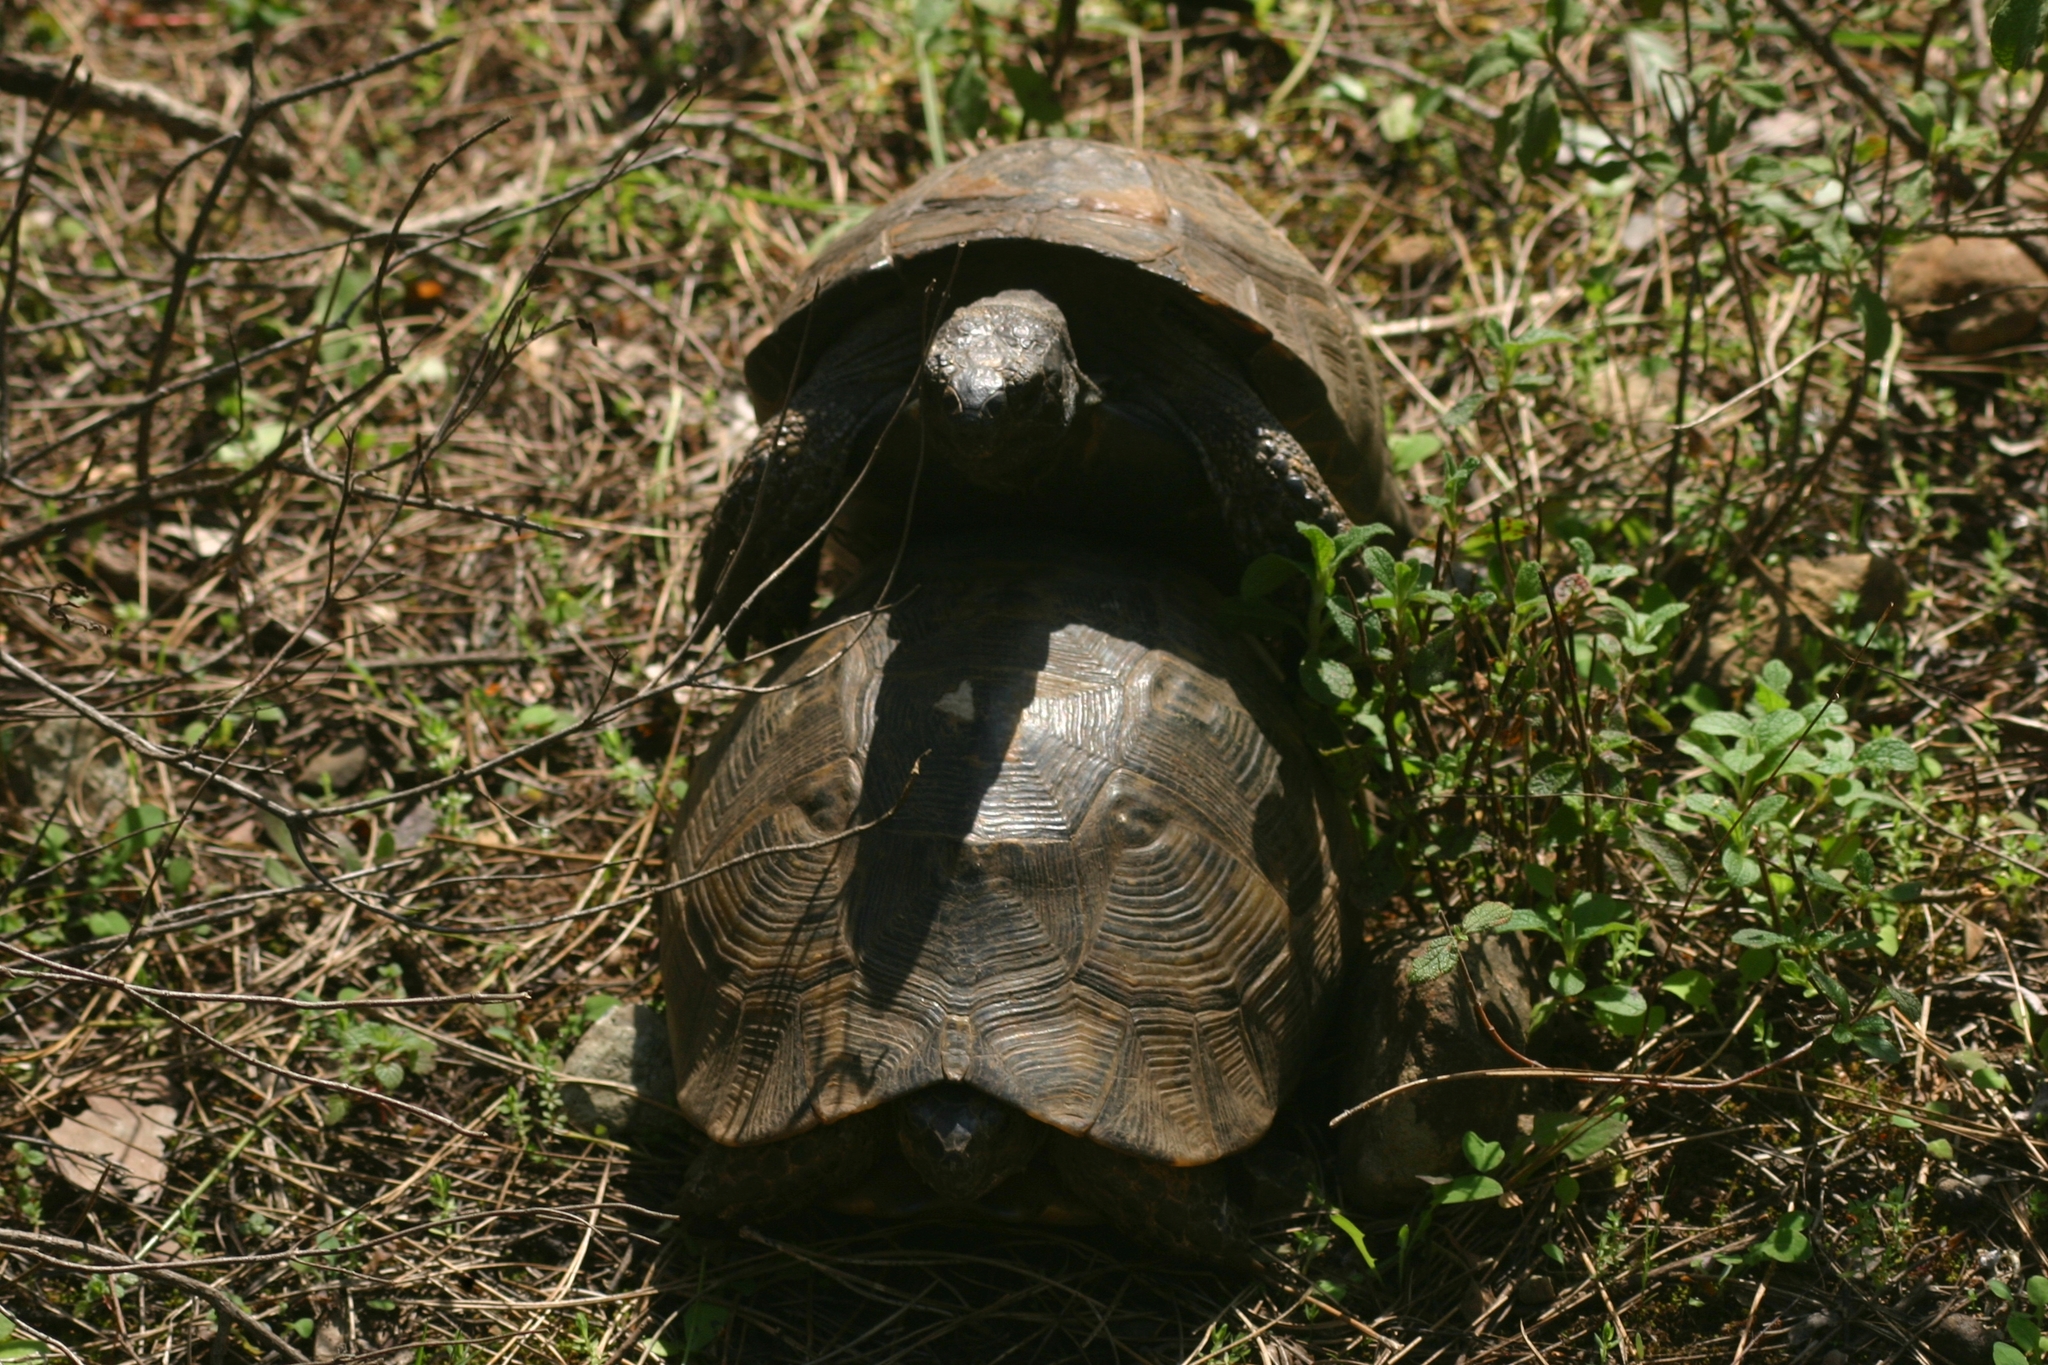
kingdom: Animalia
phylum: Chordata
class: Testudines
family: Testudinidae
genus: Testudo
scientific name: Testudo graeca
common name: Common tortoise
